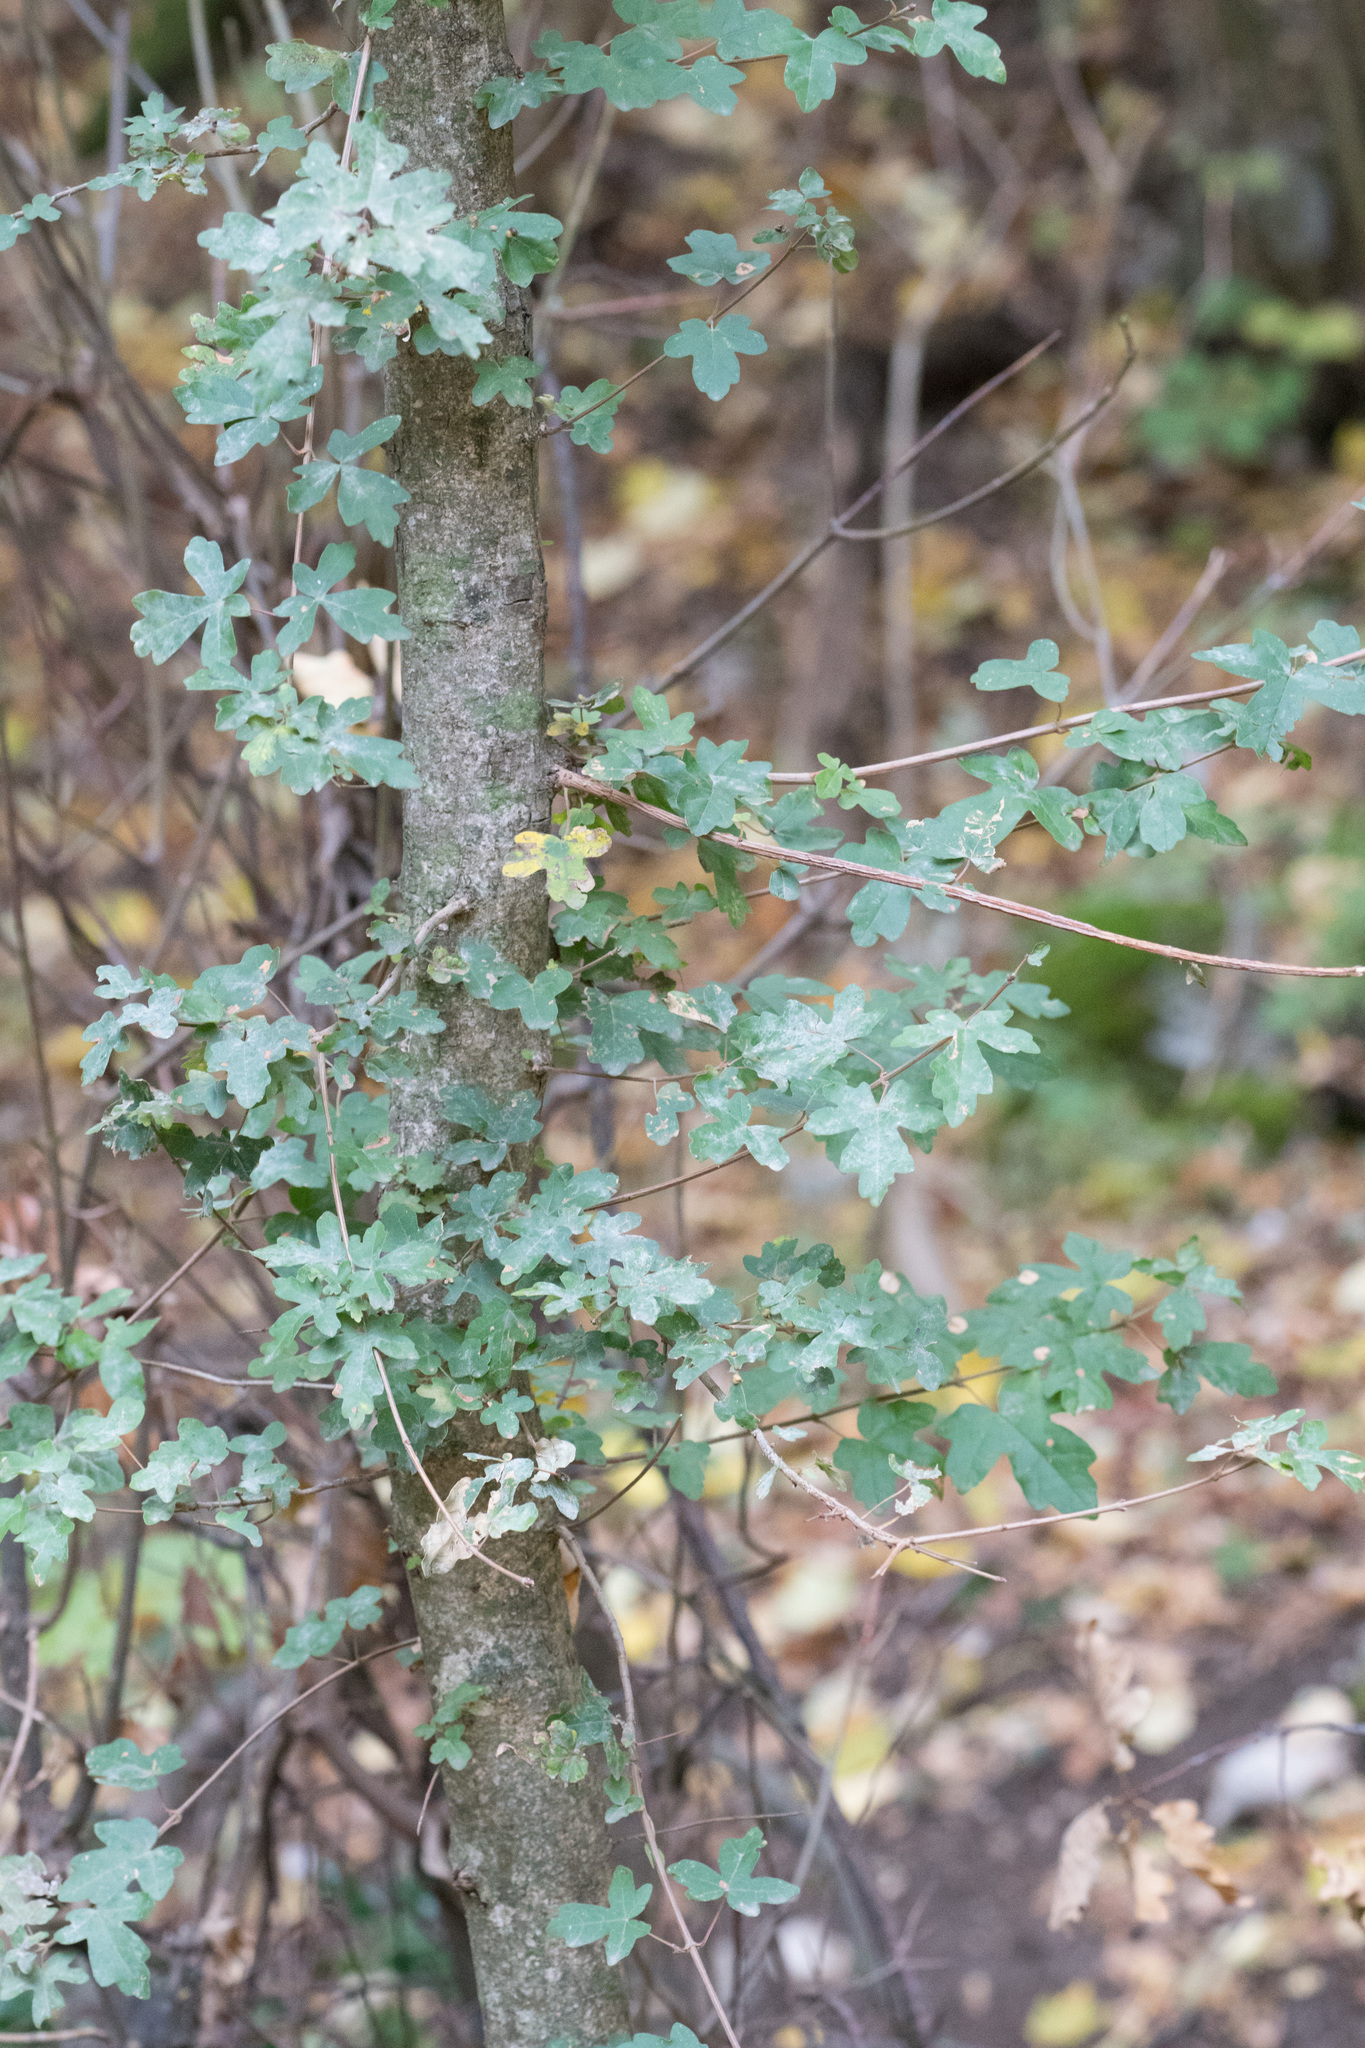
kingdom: Plantae
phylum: Tracheophyta
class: Magnoliopsida
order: Sapindales
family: Sapindaceae
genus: Acer
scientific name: Acer campestre
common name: Field maple
